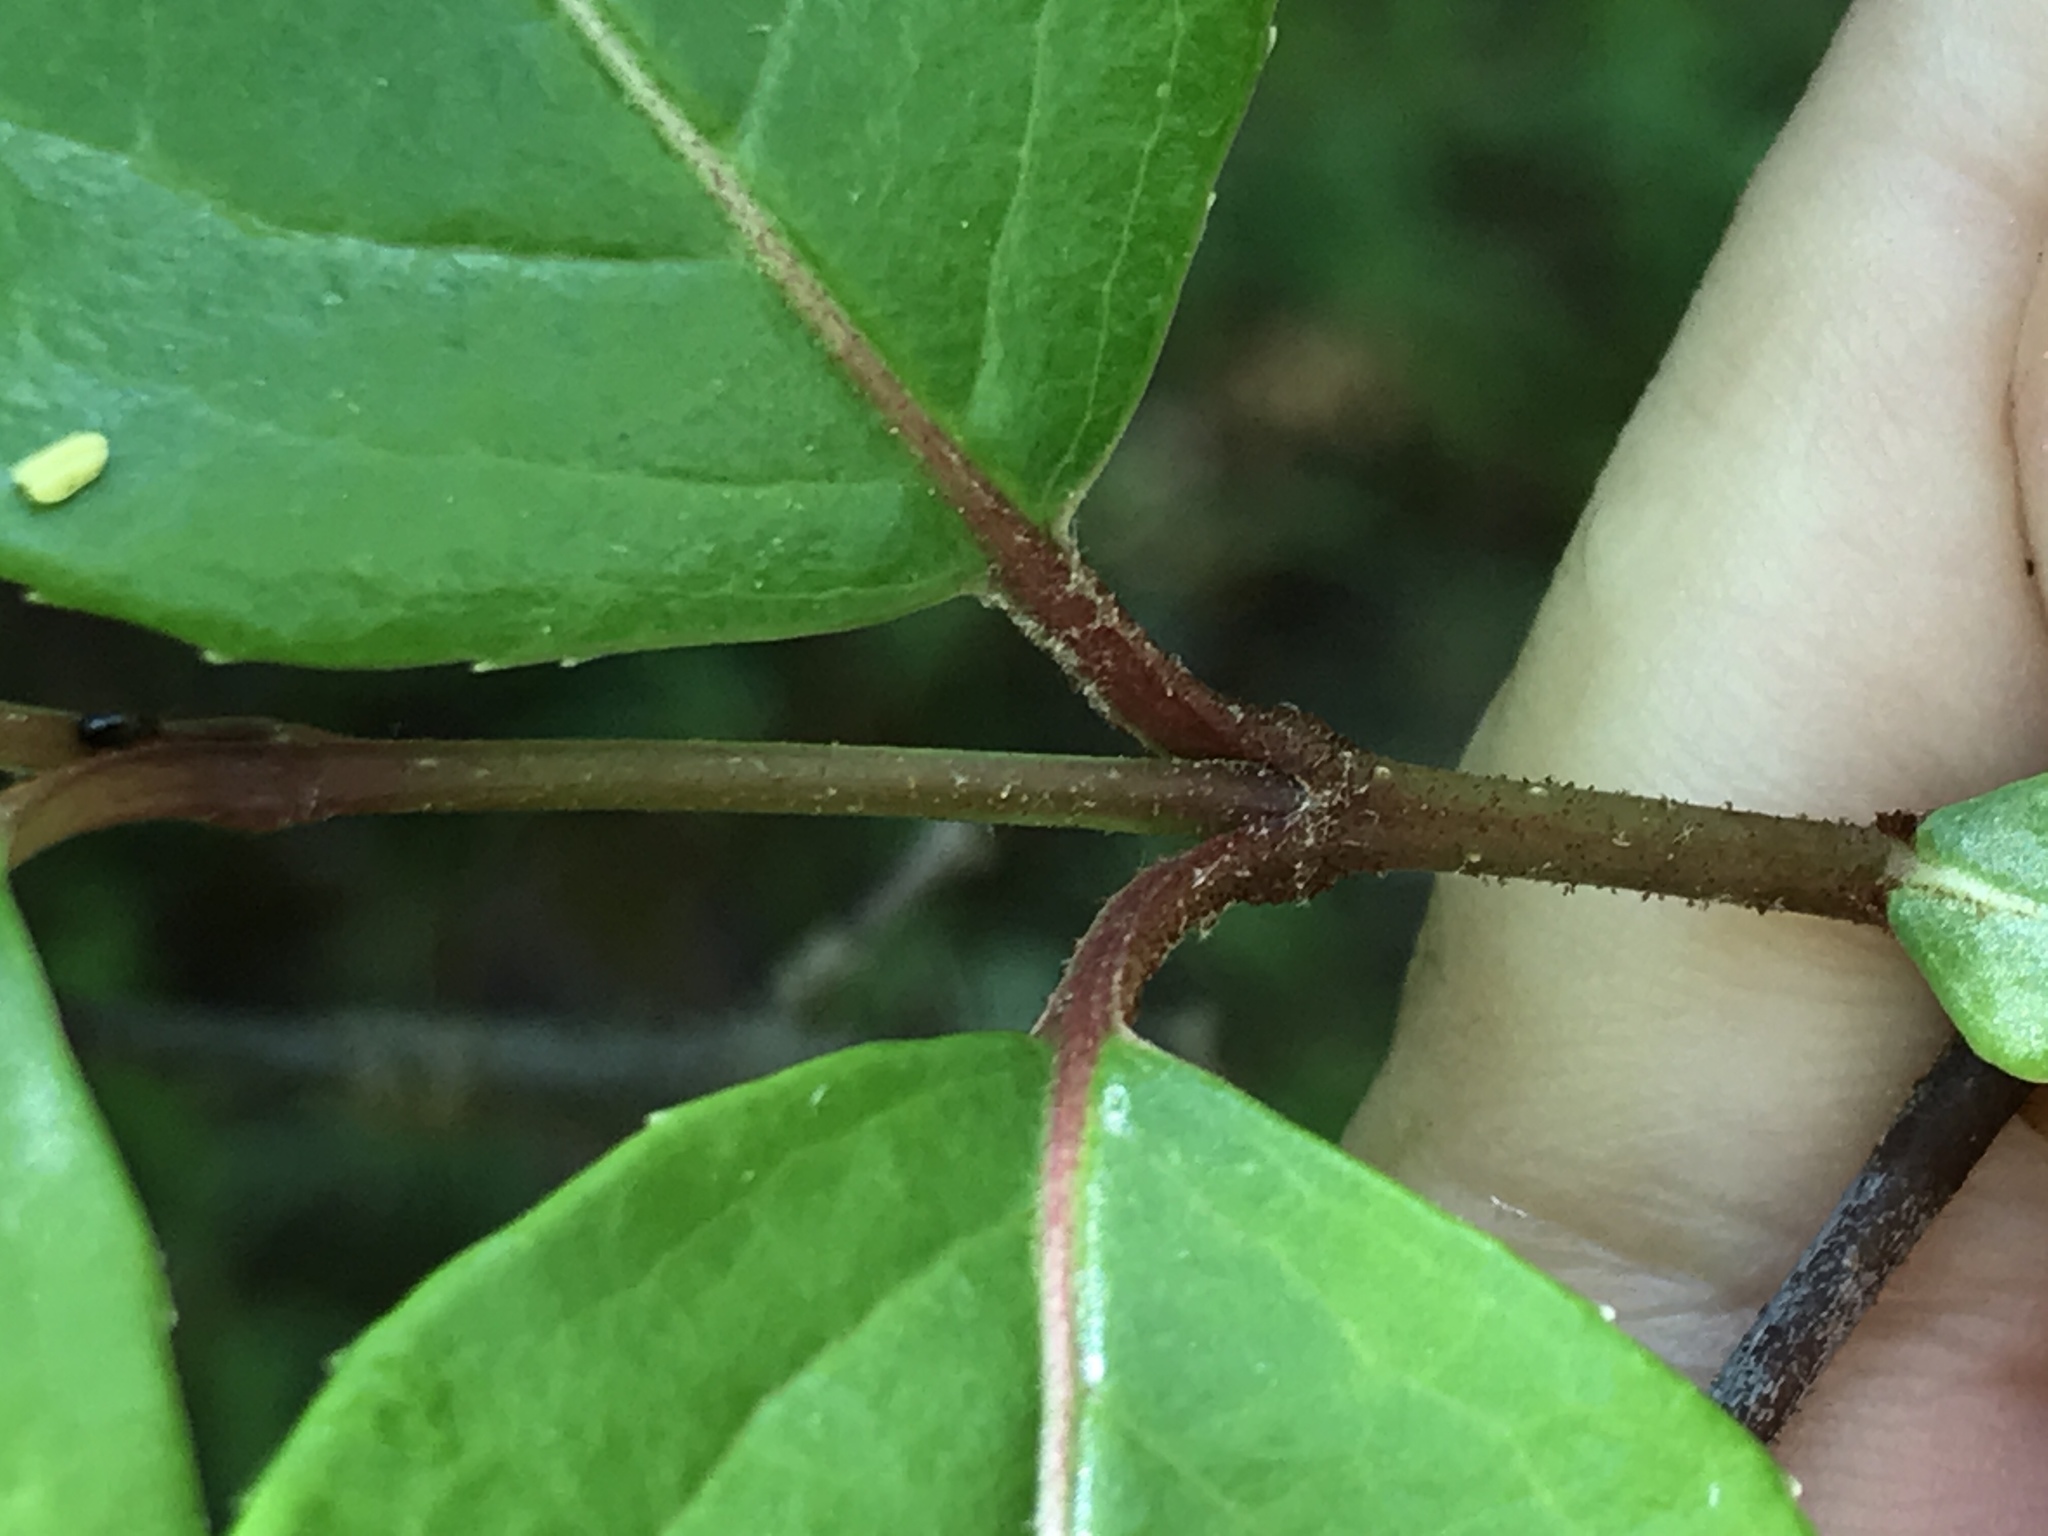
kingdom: Plantae
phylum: Tracheophyta
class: Magnoliopsida
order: Dipsacales
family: Viburnaceae
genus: Viburnum
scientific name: Viburnum rufidulum
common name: Blue haw
